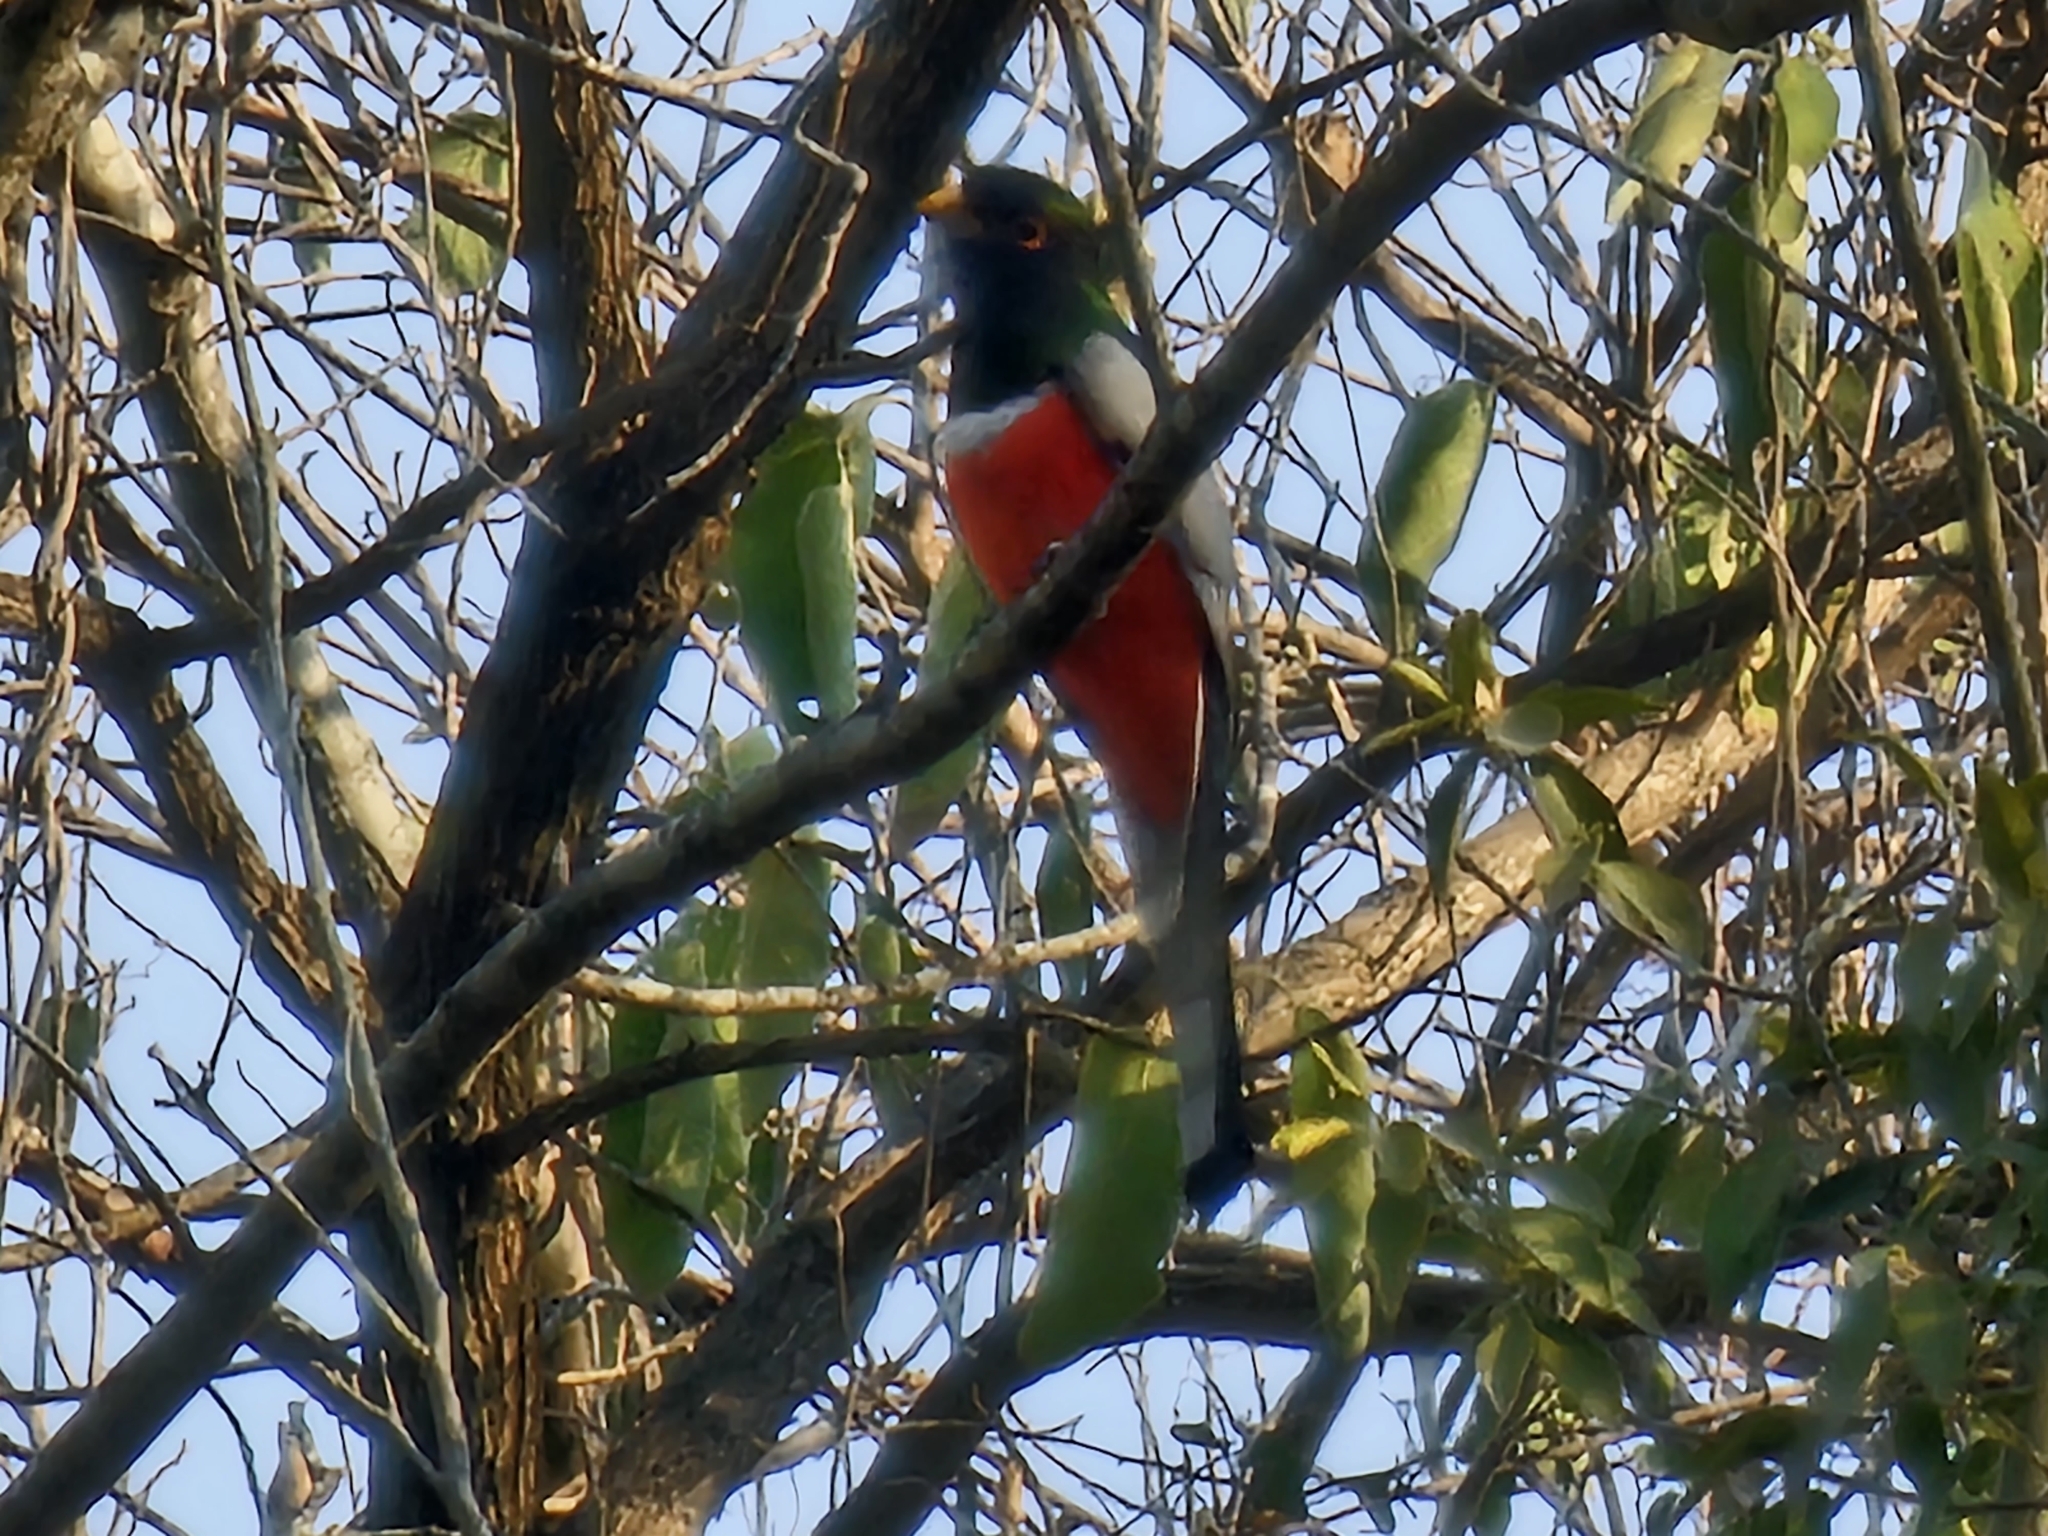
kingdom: Animalia
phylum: Chordata
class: Aves
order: Trogoniformes
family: Trogonidae
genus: Trogon
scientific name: Trogon elegans
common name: Elegant trogon
